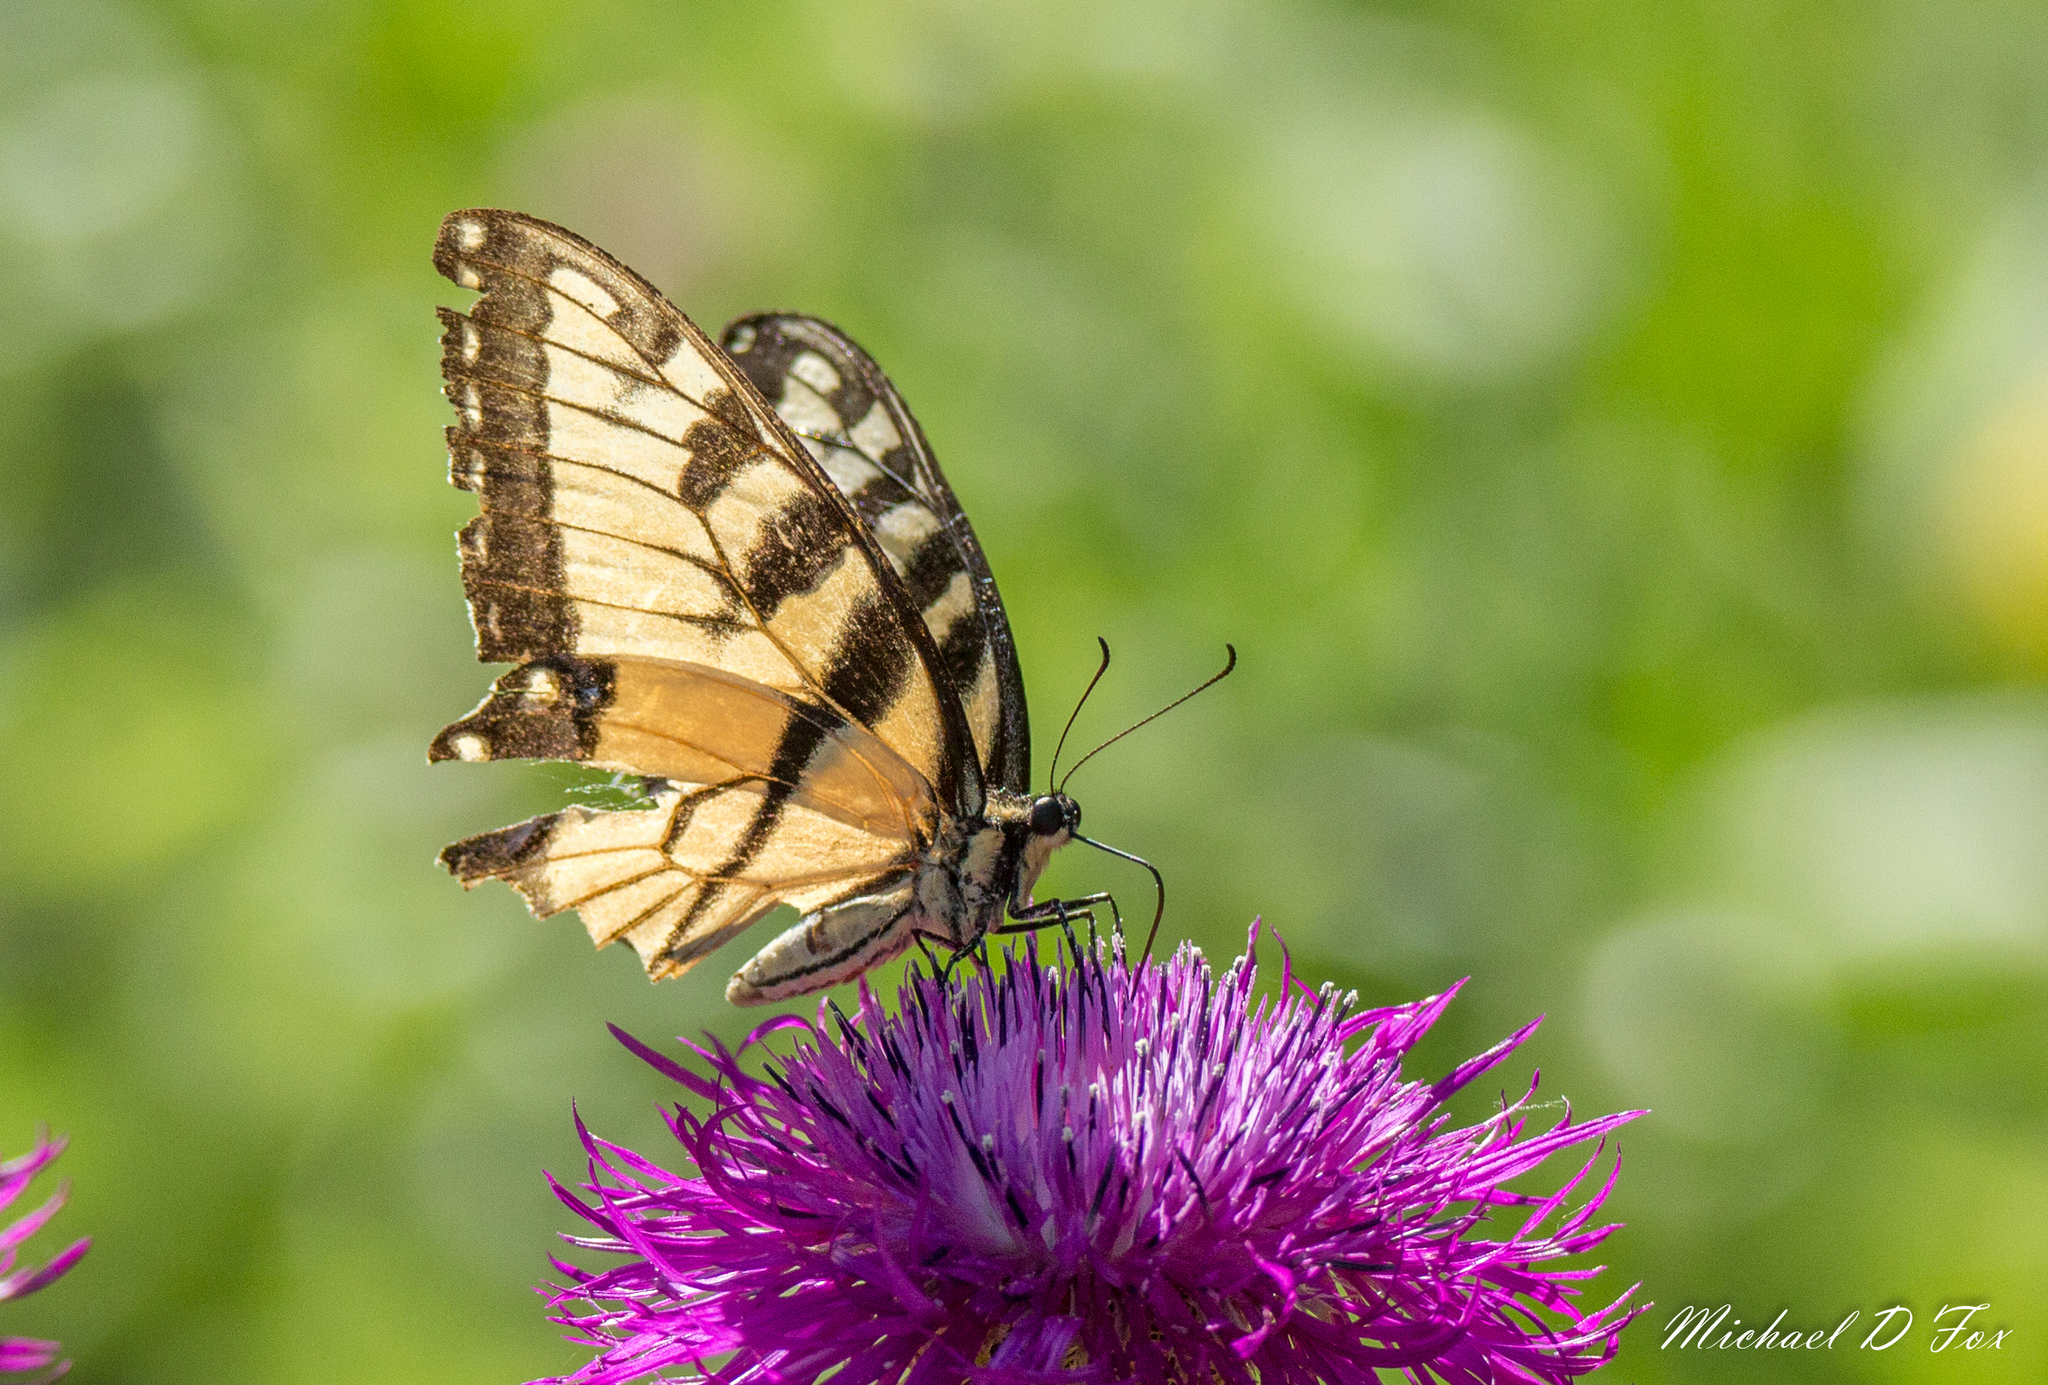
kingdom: Animalia
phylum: Arthropoda
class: Insecta
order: Lepidoptera
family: Papilionidae
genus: Papilio
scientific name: Papilio glaucus
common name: Tiger swallowtail
